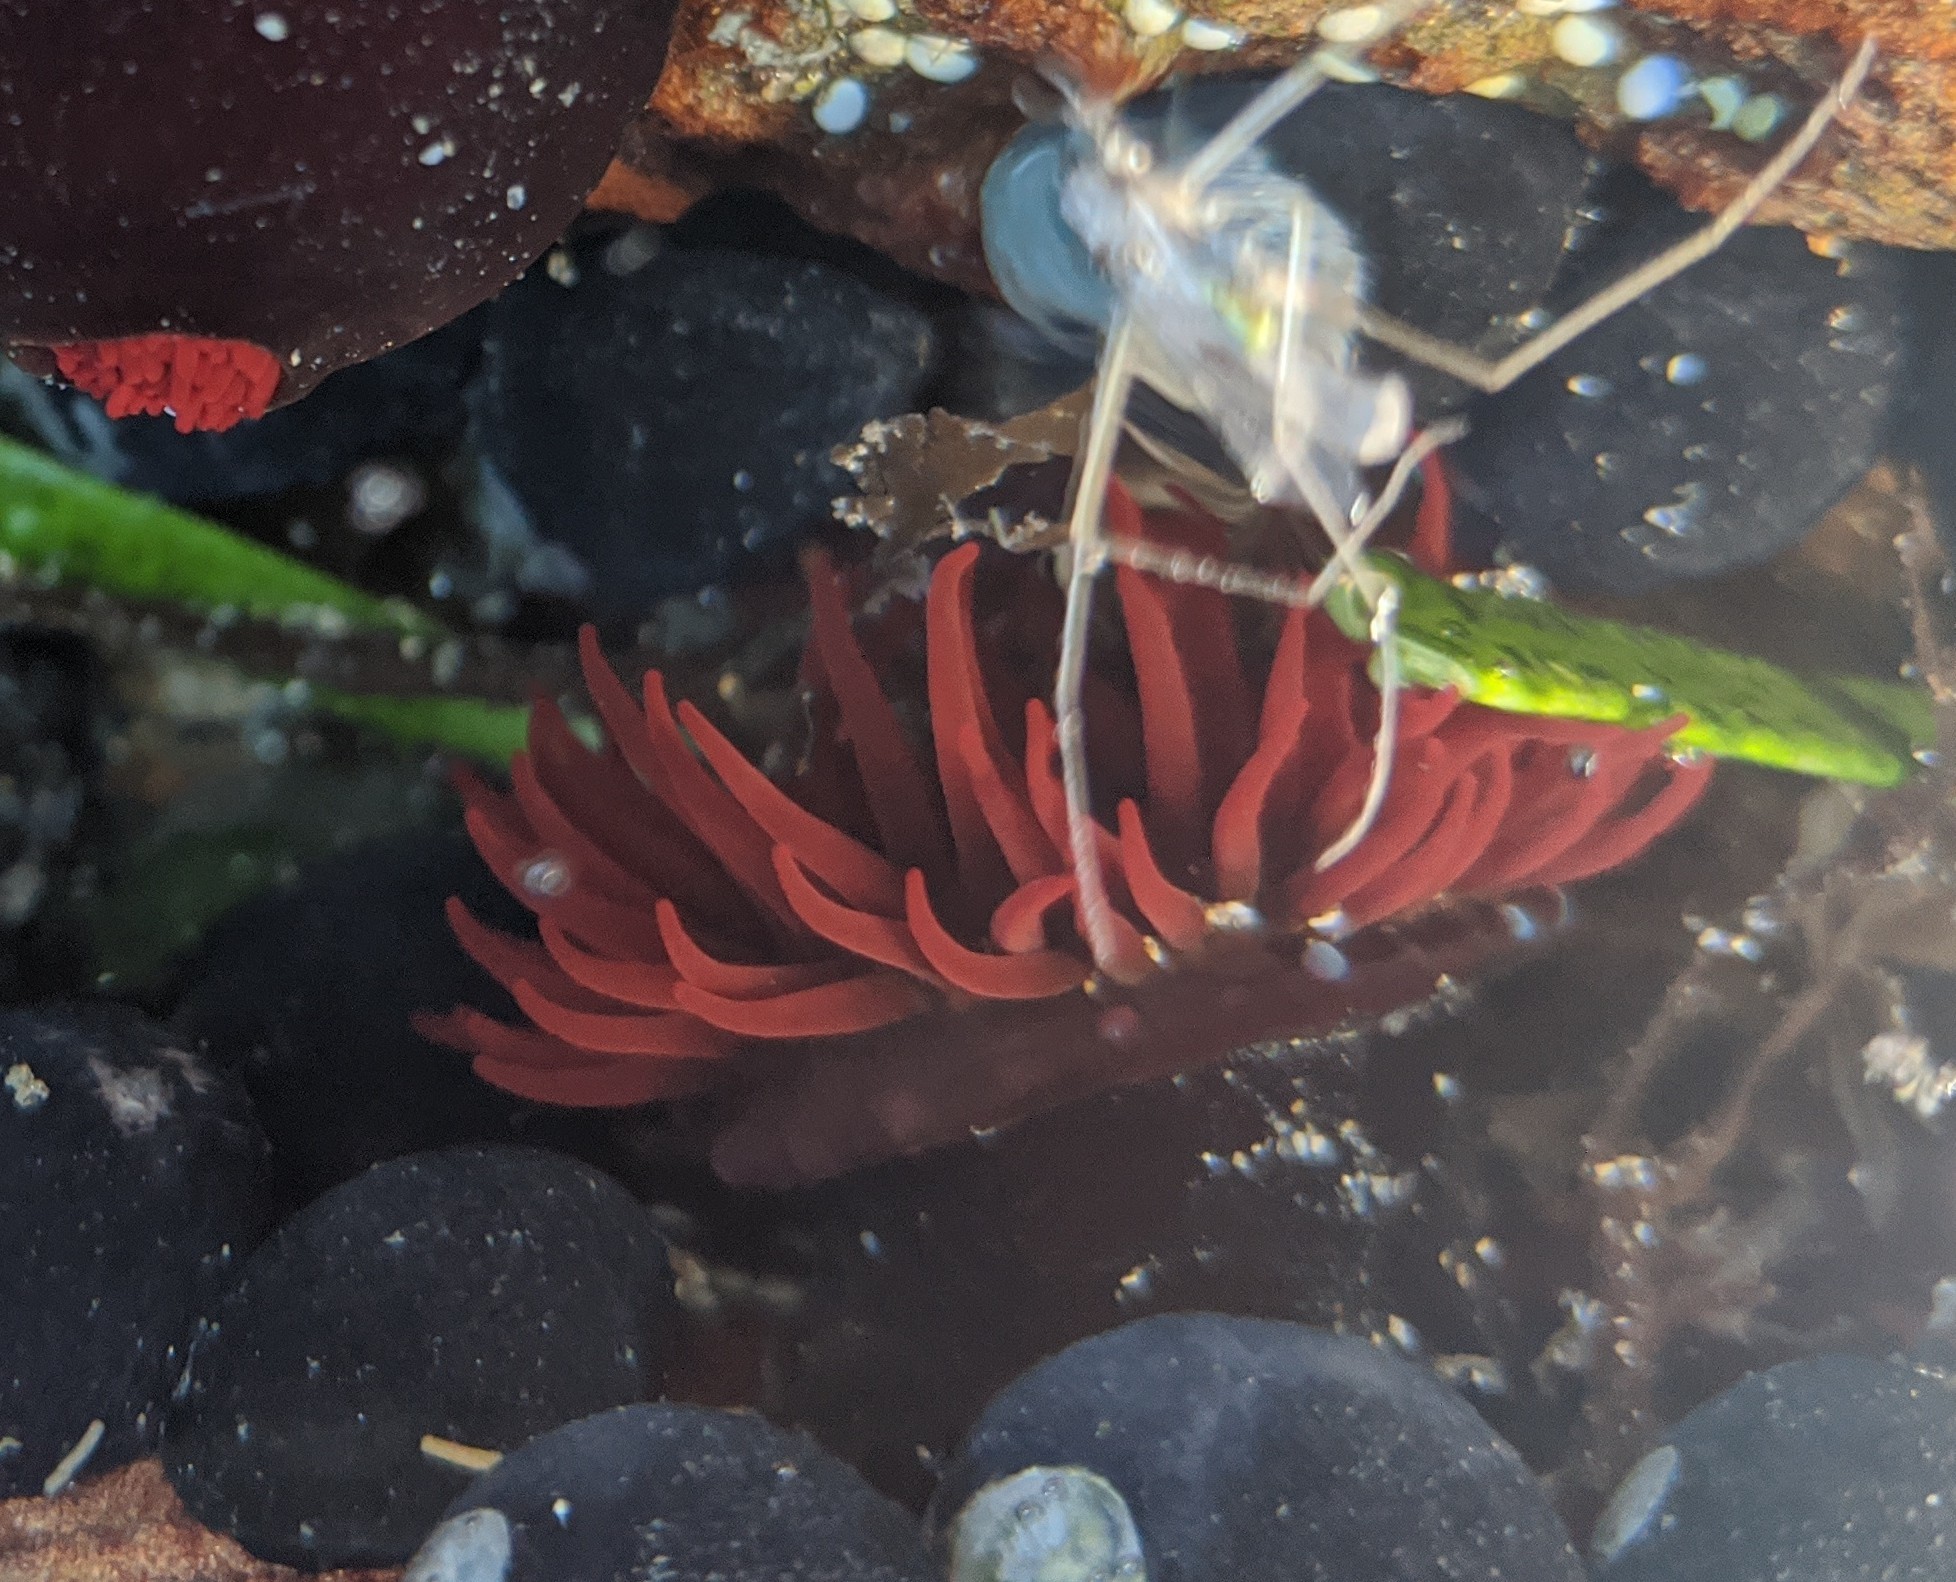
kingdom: Animalia
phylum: Cnidaria
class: Anthozoa
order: Actiniaria
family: Actiniidae
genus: Actinia
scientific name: Actinia tenebrosa
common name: Waratah anemone
